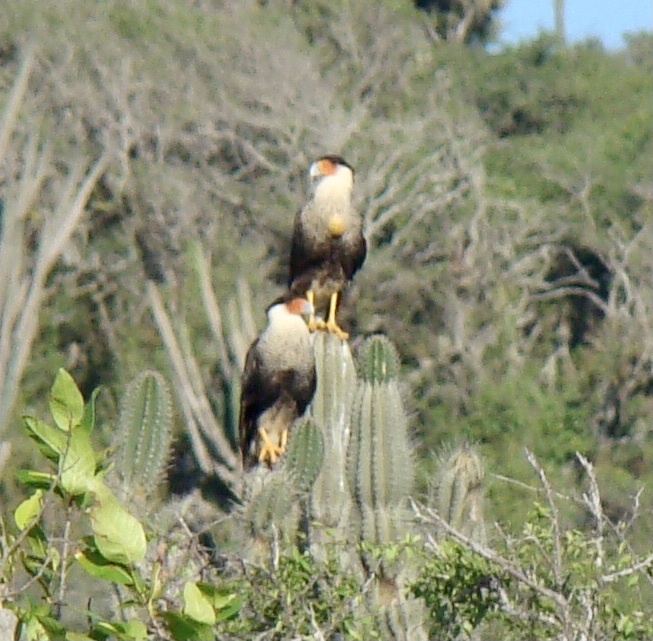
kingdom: Animalia
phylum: Chordata
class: Aves
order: Falconiformes
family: Falconidae
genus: Caracara
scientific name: Caracara plancus
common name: Southern caracara
